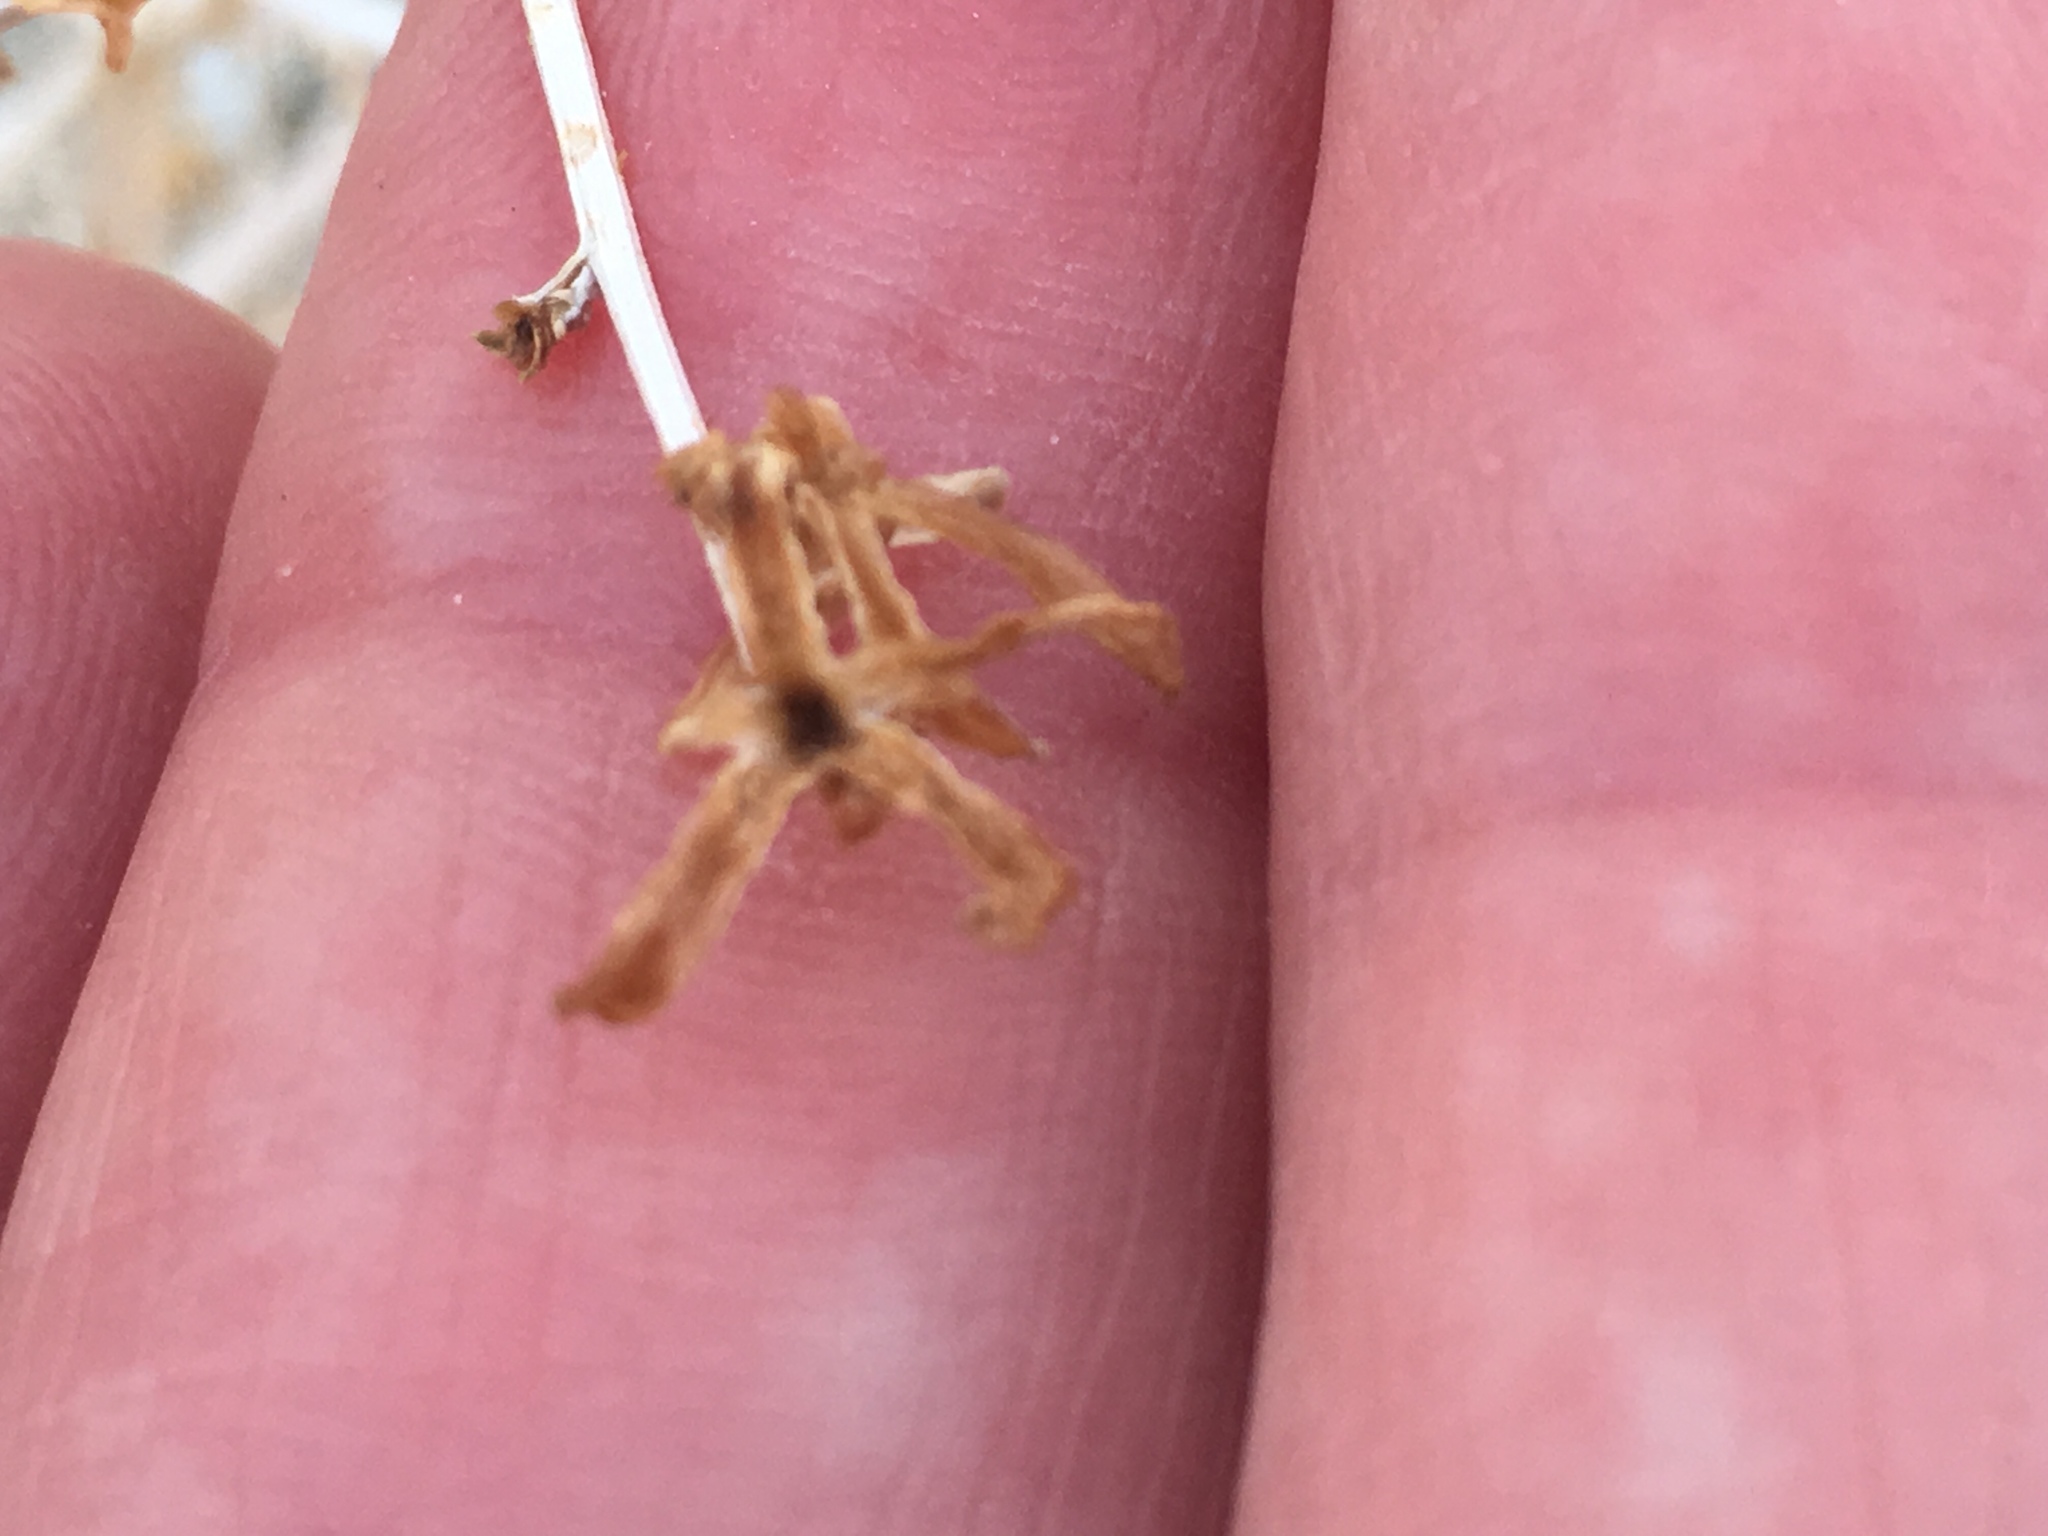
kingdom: Plantae
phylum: Tracheophyta
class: Magnoliopsida
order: Asterales
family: Asteraceae
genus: Stephanomeria
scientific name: Stephanomeria pauciflora
